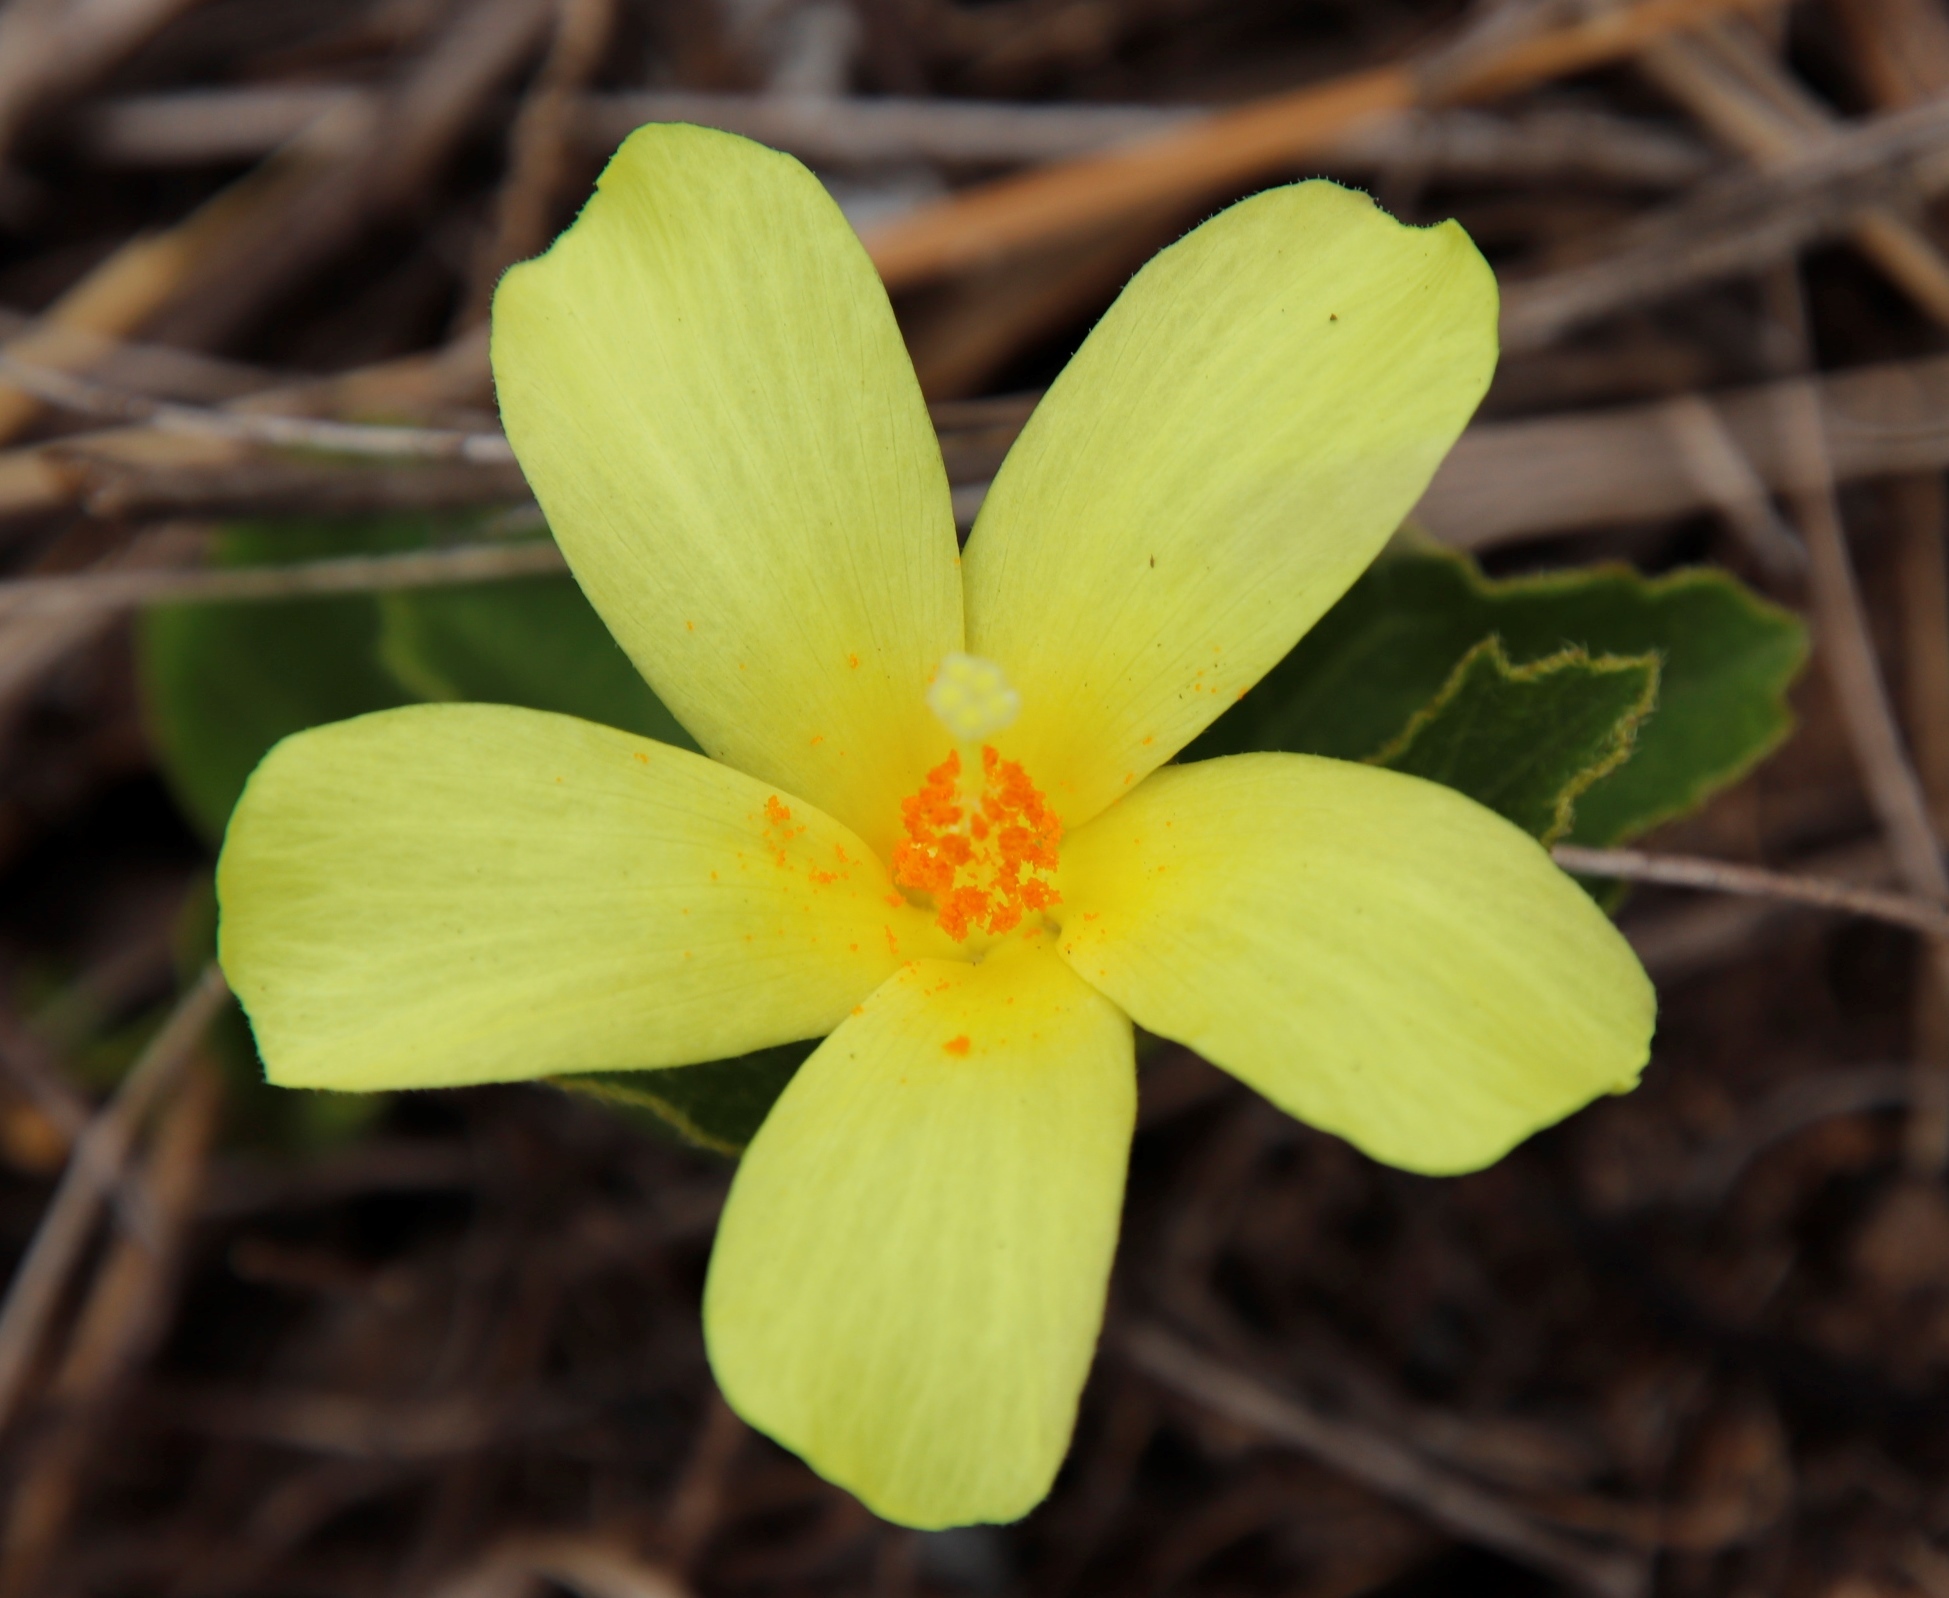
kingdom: Plantae
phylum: Tracheophyta
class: Magnoliopsida
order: Malvales
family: Malvaceae
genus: Hibiscus
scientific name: Hibiscus aethiopicus
